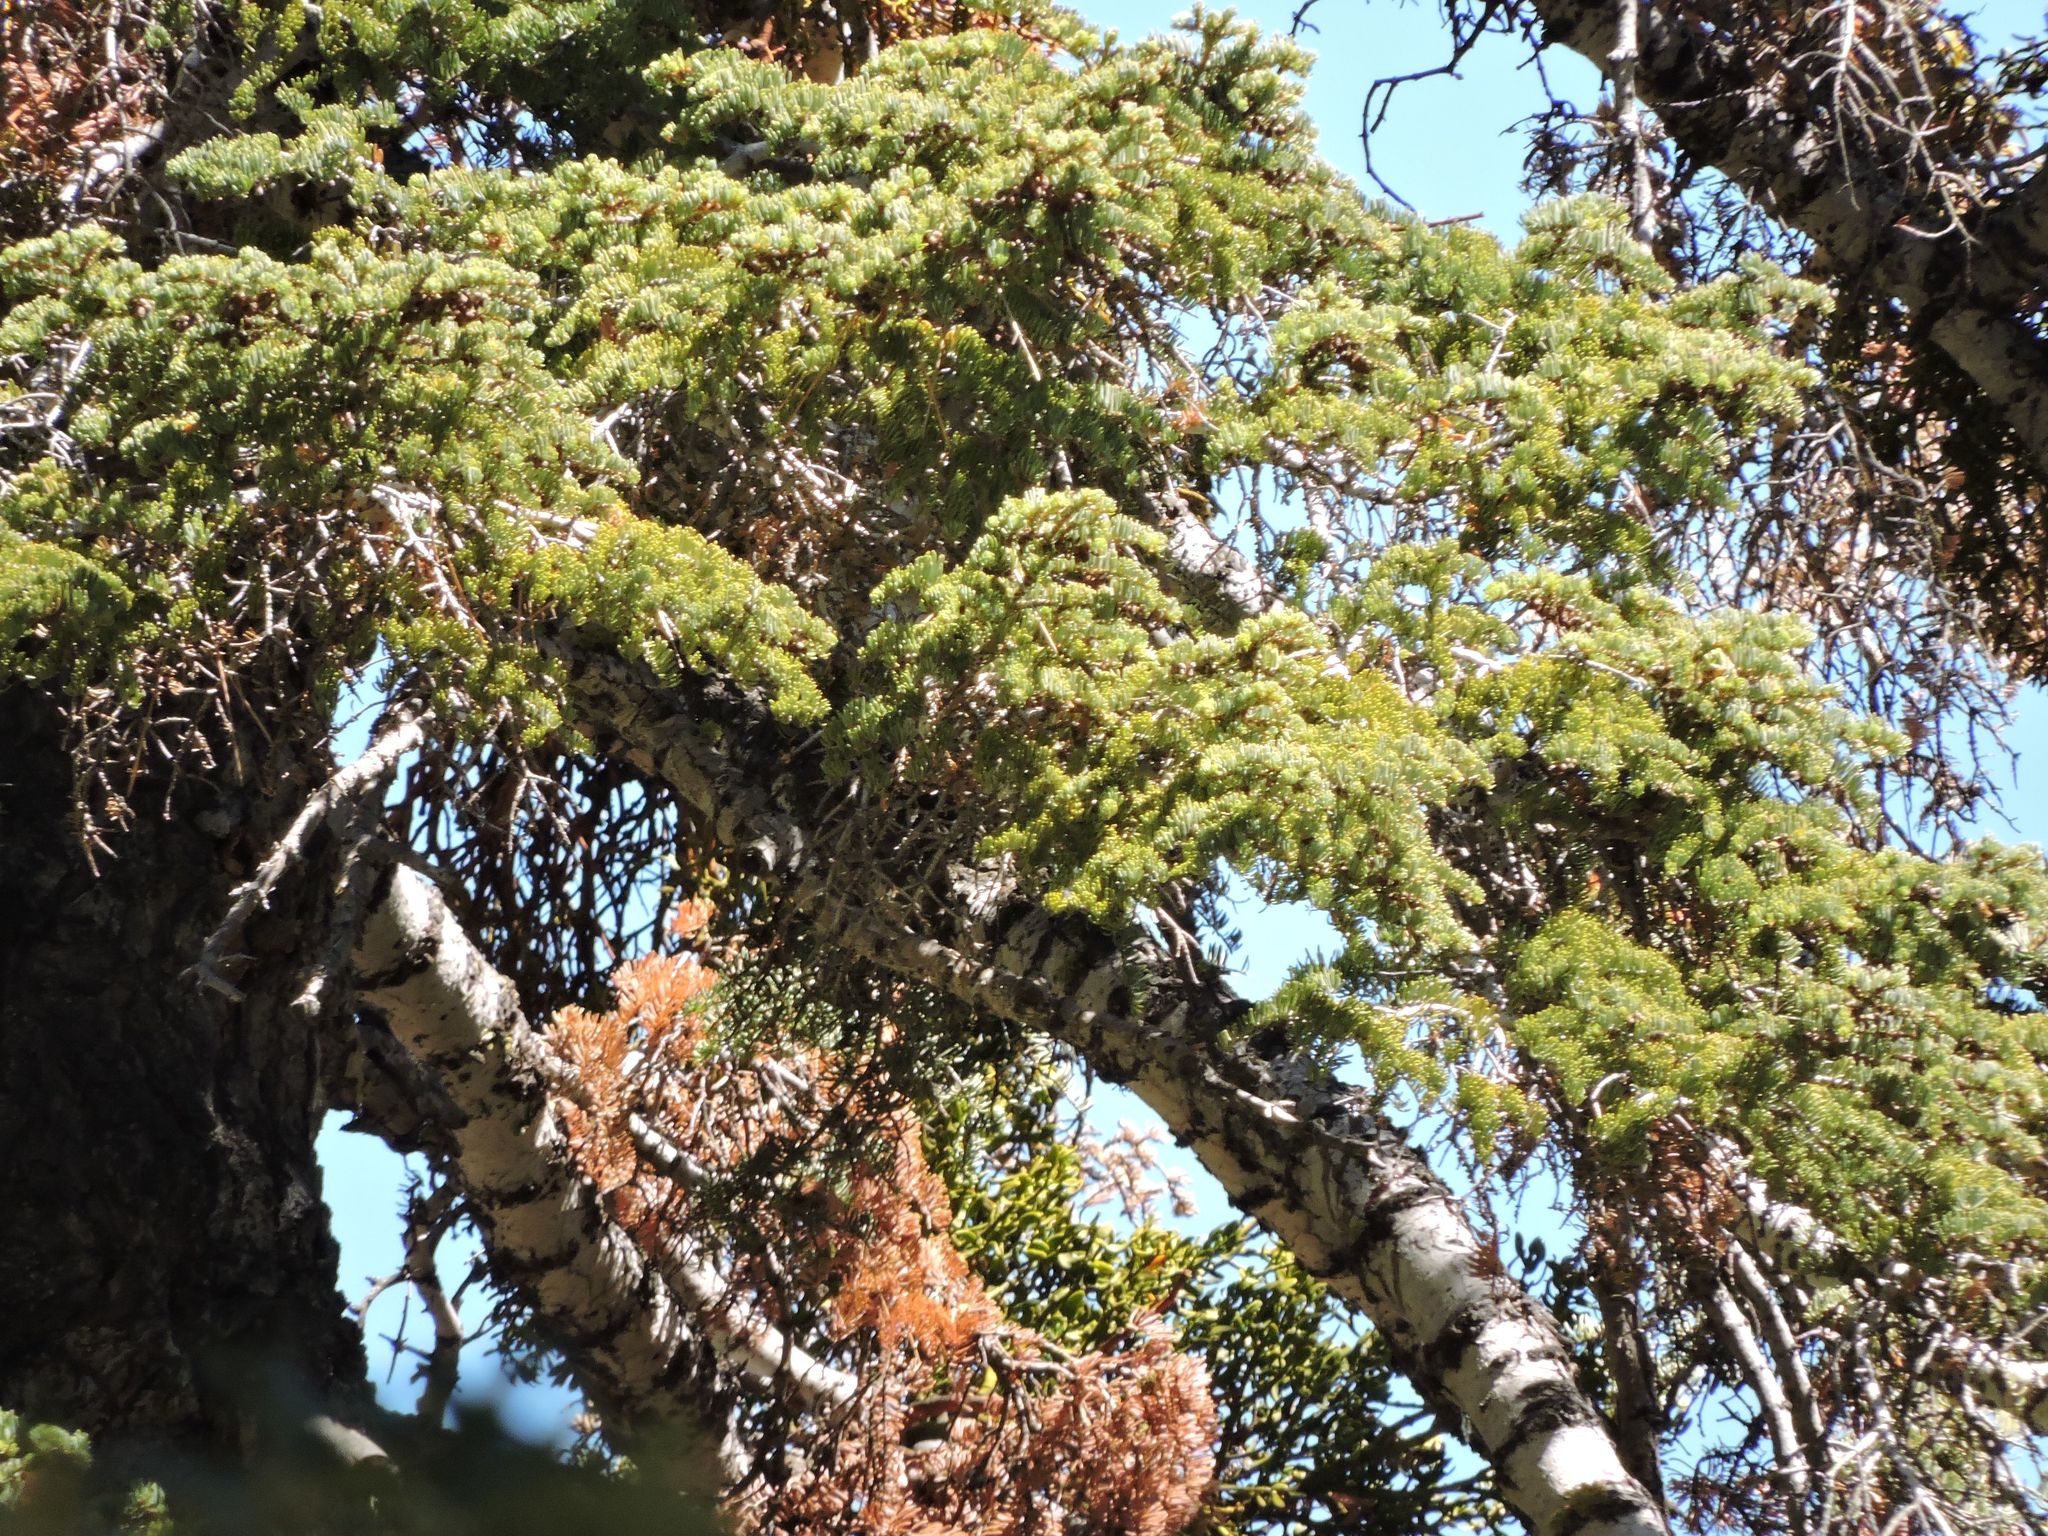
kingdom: Plantae
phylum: Tracheophyta
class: Pinopsida
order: Pinales
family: Pinaceae
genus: Abies
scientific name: Abies concolor
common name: Colorado fir
